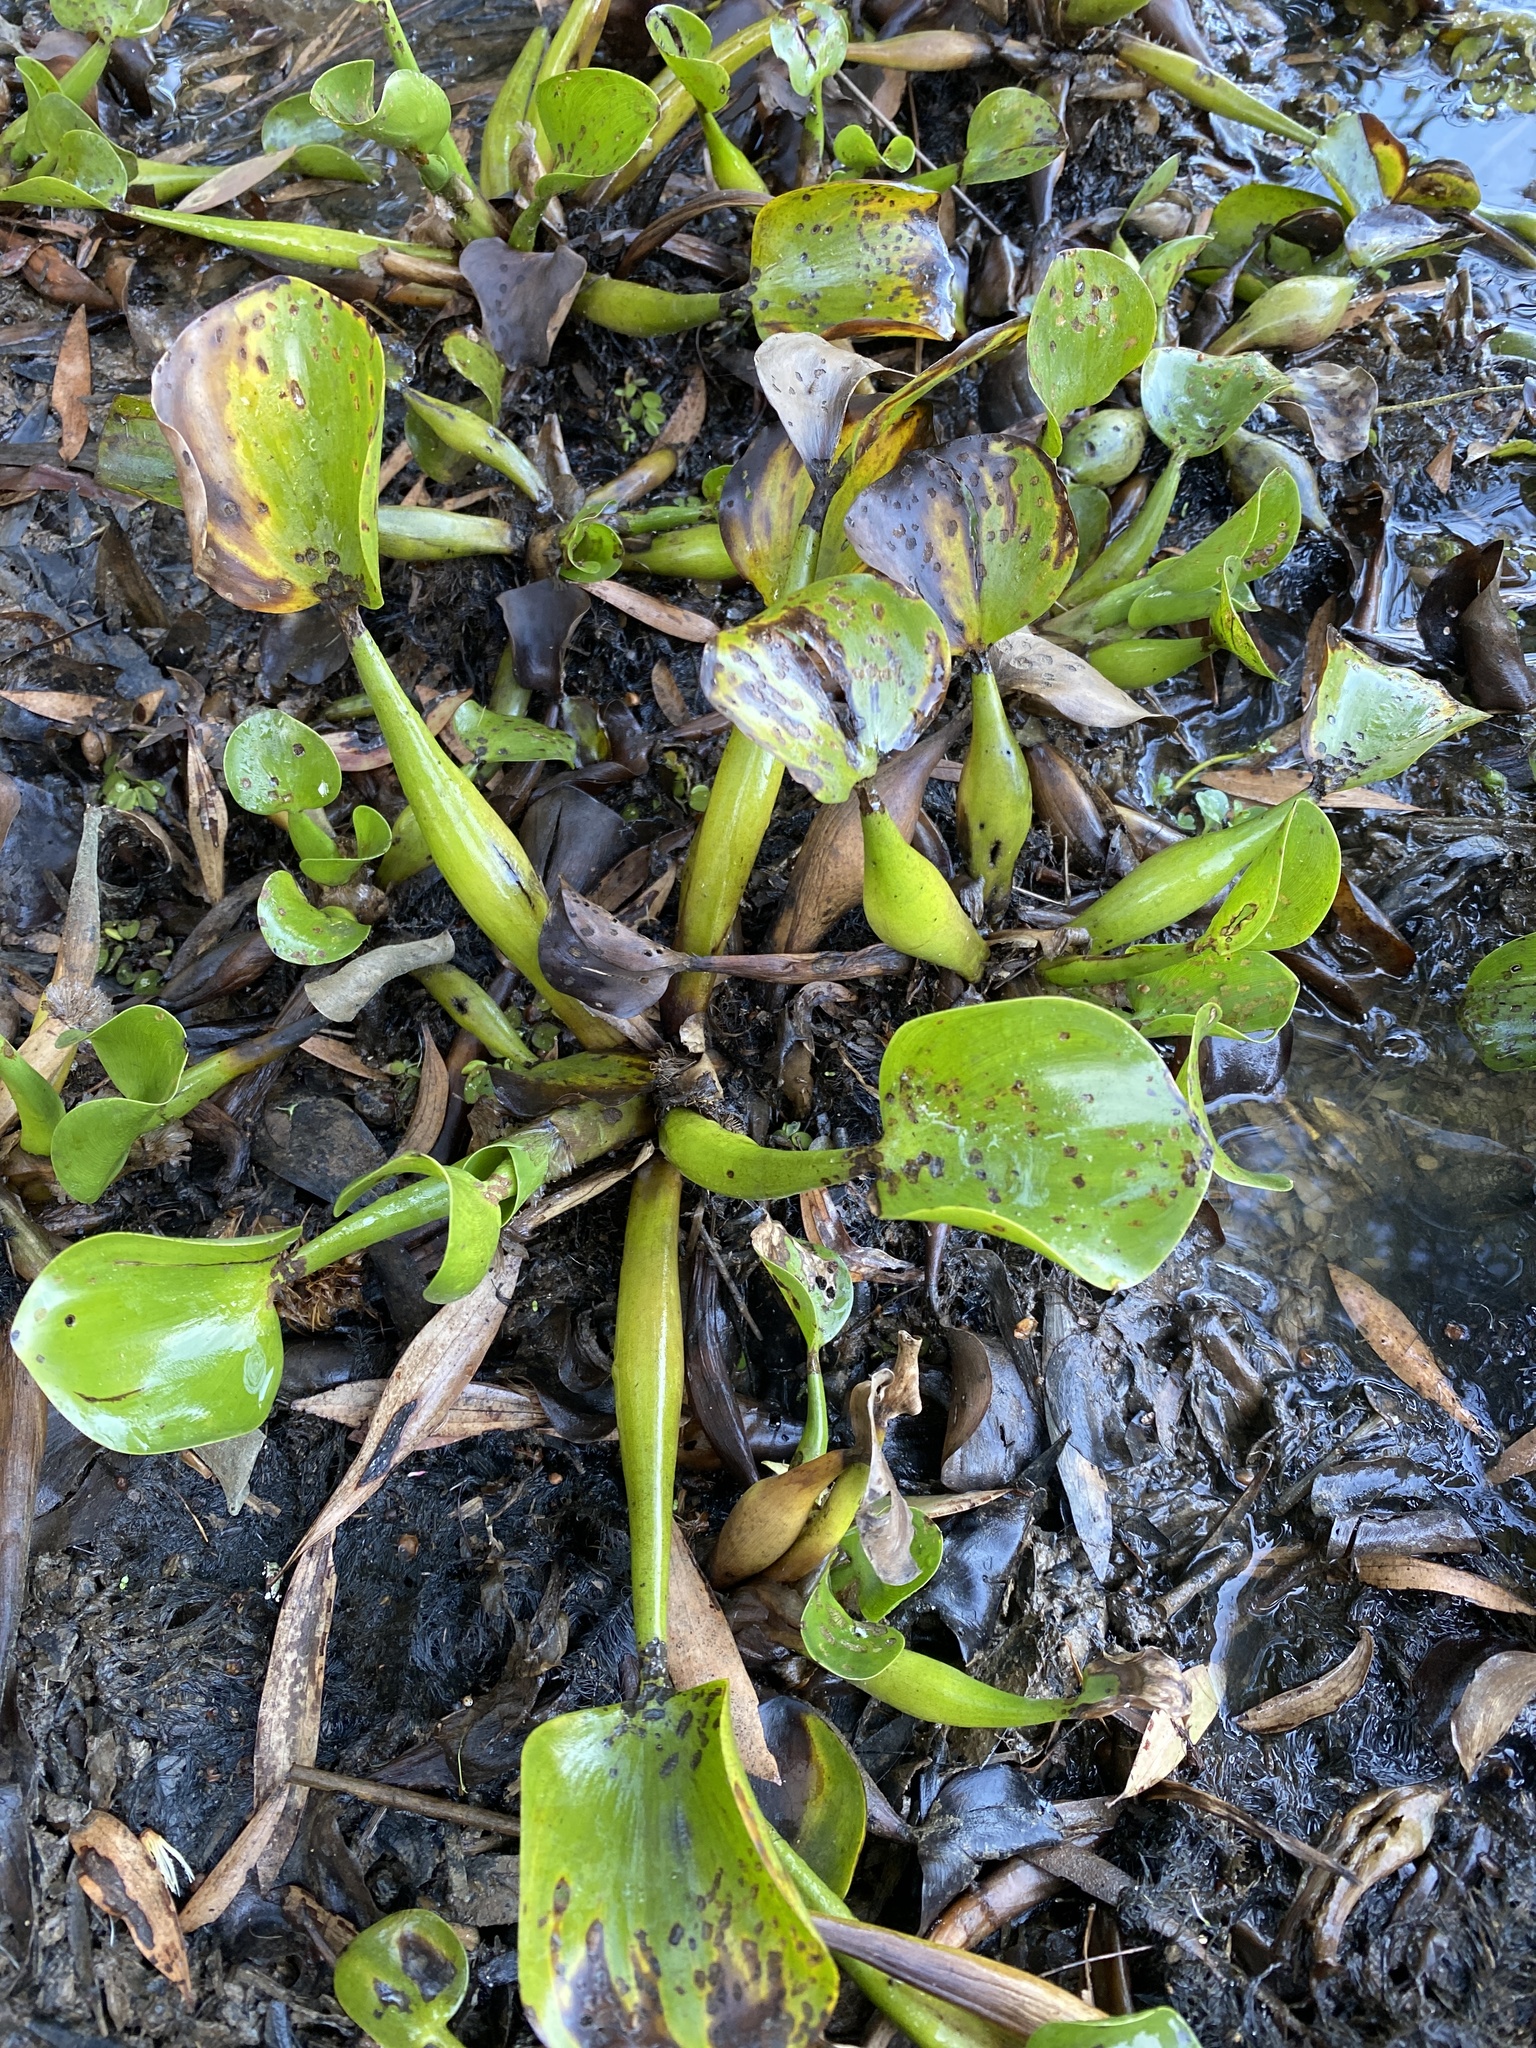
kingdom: Plantae
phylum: Tracheophyta
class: Liliopsida
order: Commelinales
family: Pontederiaceae
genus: Pontederia
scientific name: Pontederia crassipes
